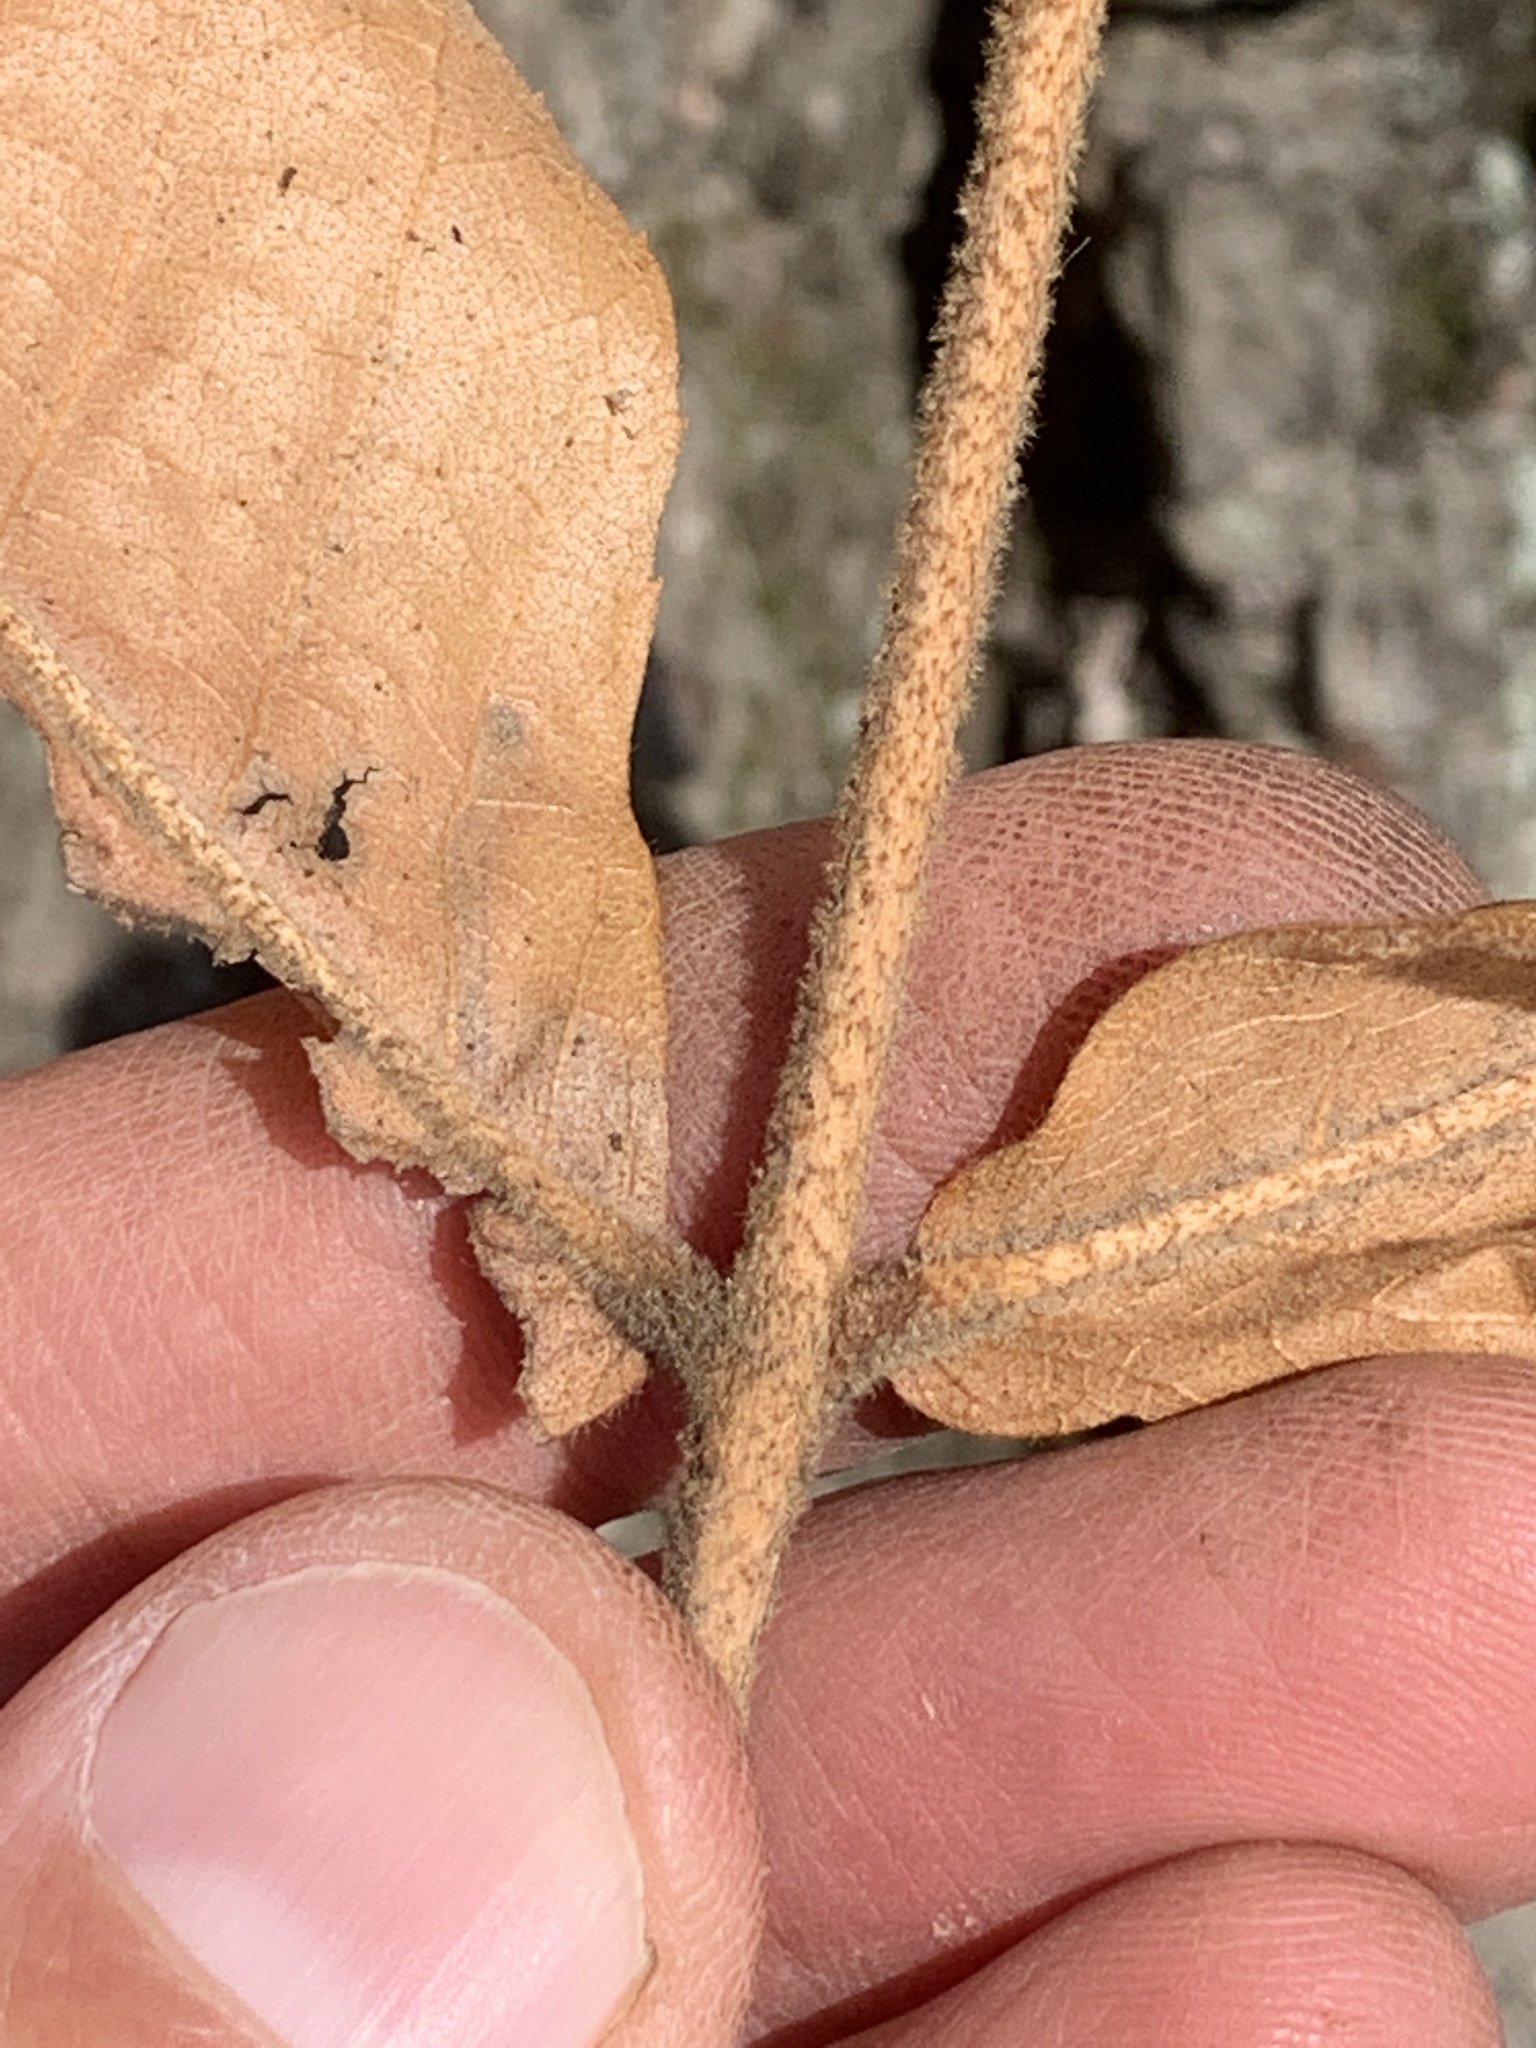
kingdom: Plantae
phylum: Tracheophyta
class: Magnoliopsida
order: Fagales
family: Juglandaceae
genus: Carya
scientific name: Carya alba
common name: Mockernut hickory
